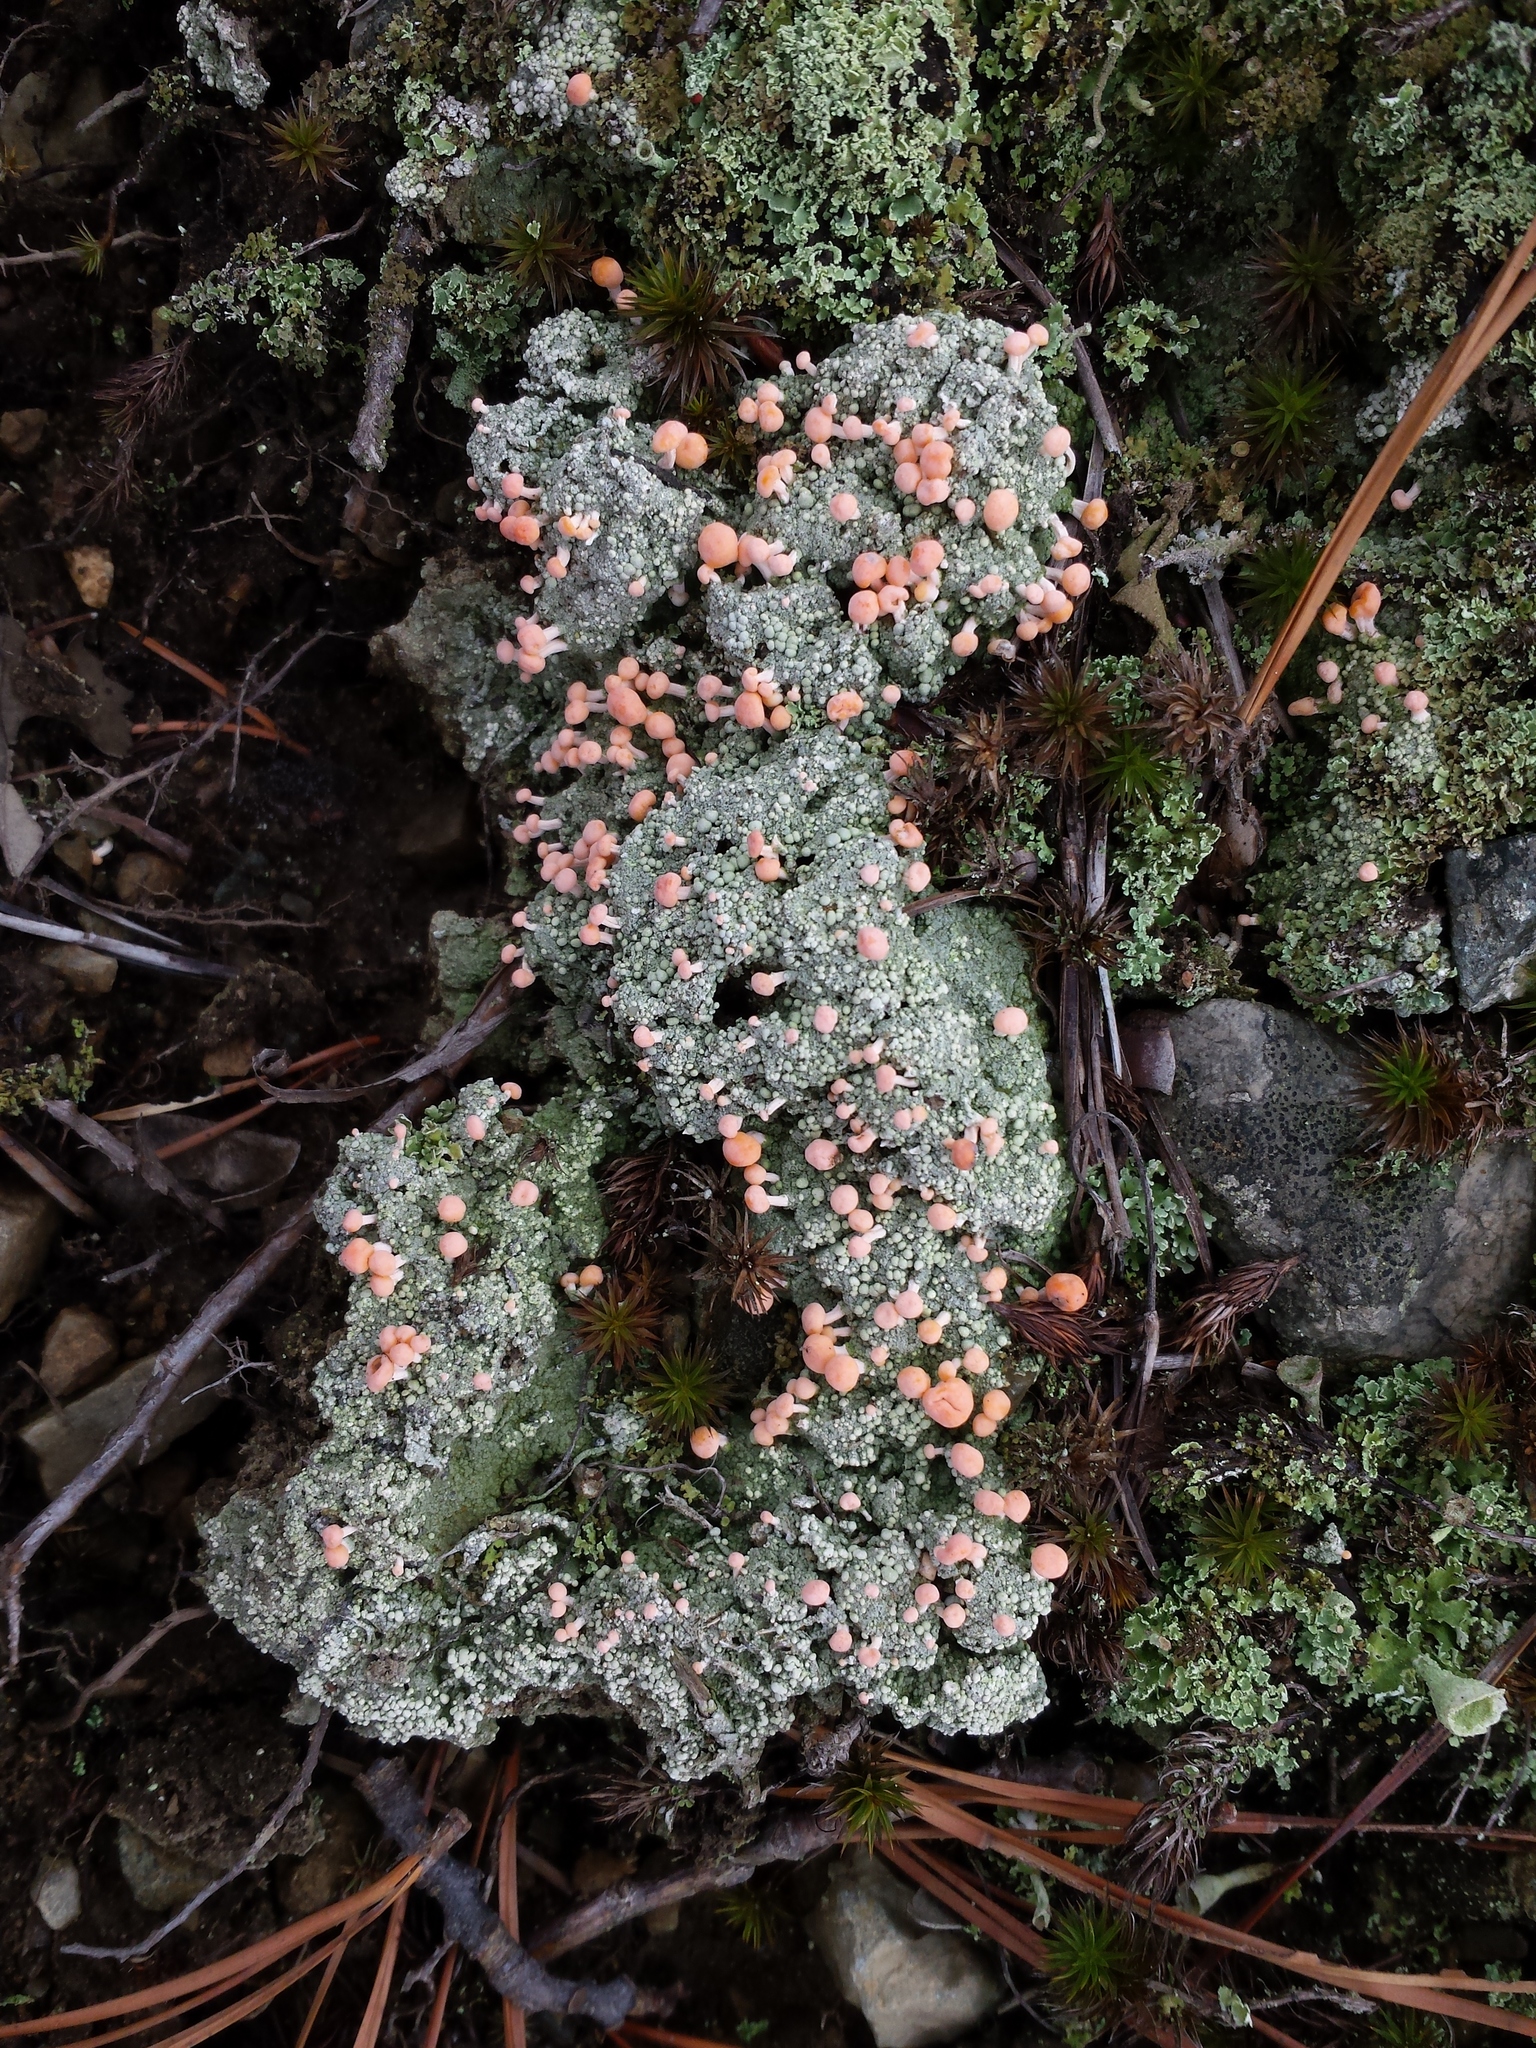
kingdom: Fungi
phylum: Ascomycota
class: Lecanoromycetes
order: Pertusariales
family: Icmadophilaceae
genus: Dibaeis
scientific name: Dibaeis baeomyces
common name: Pink earth lichen
